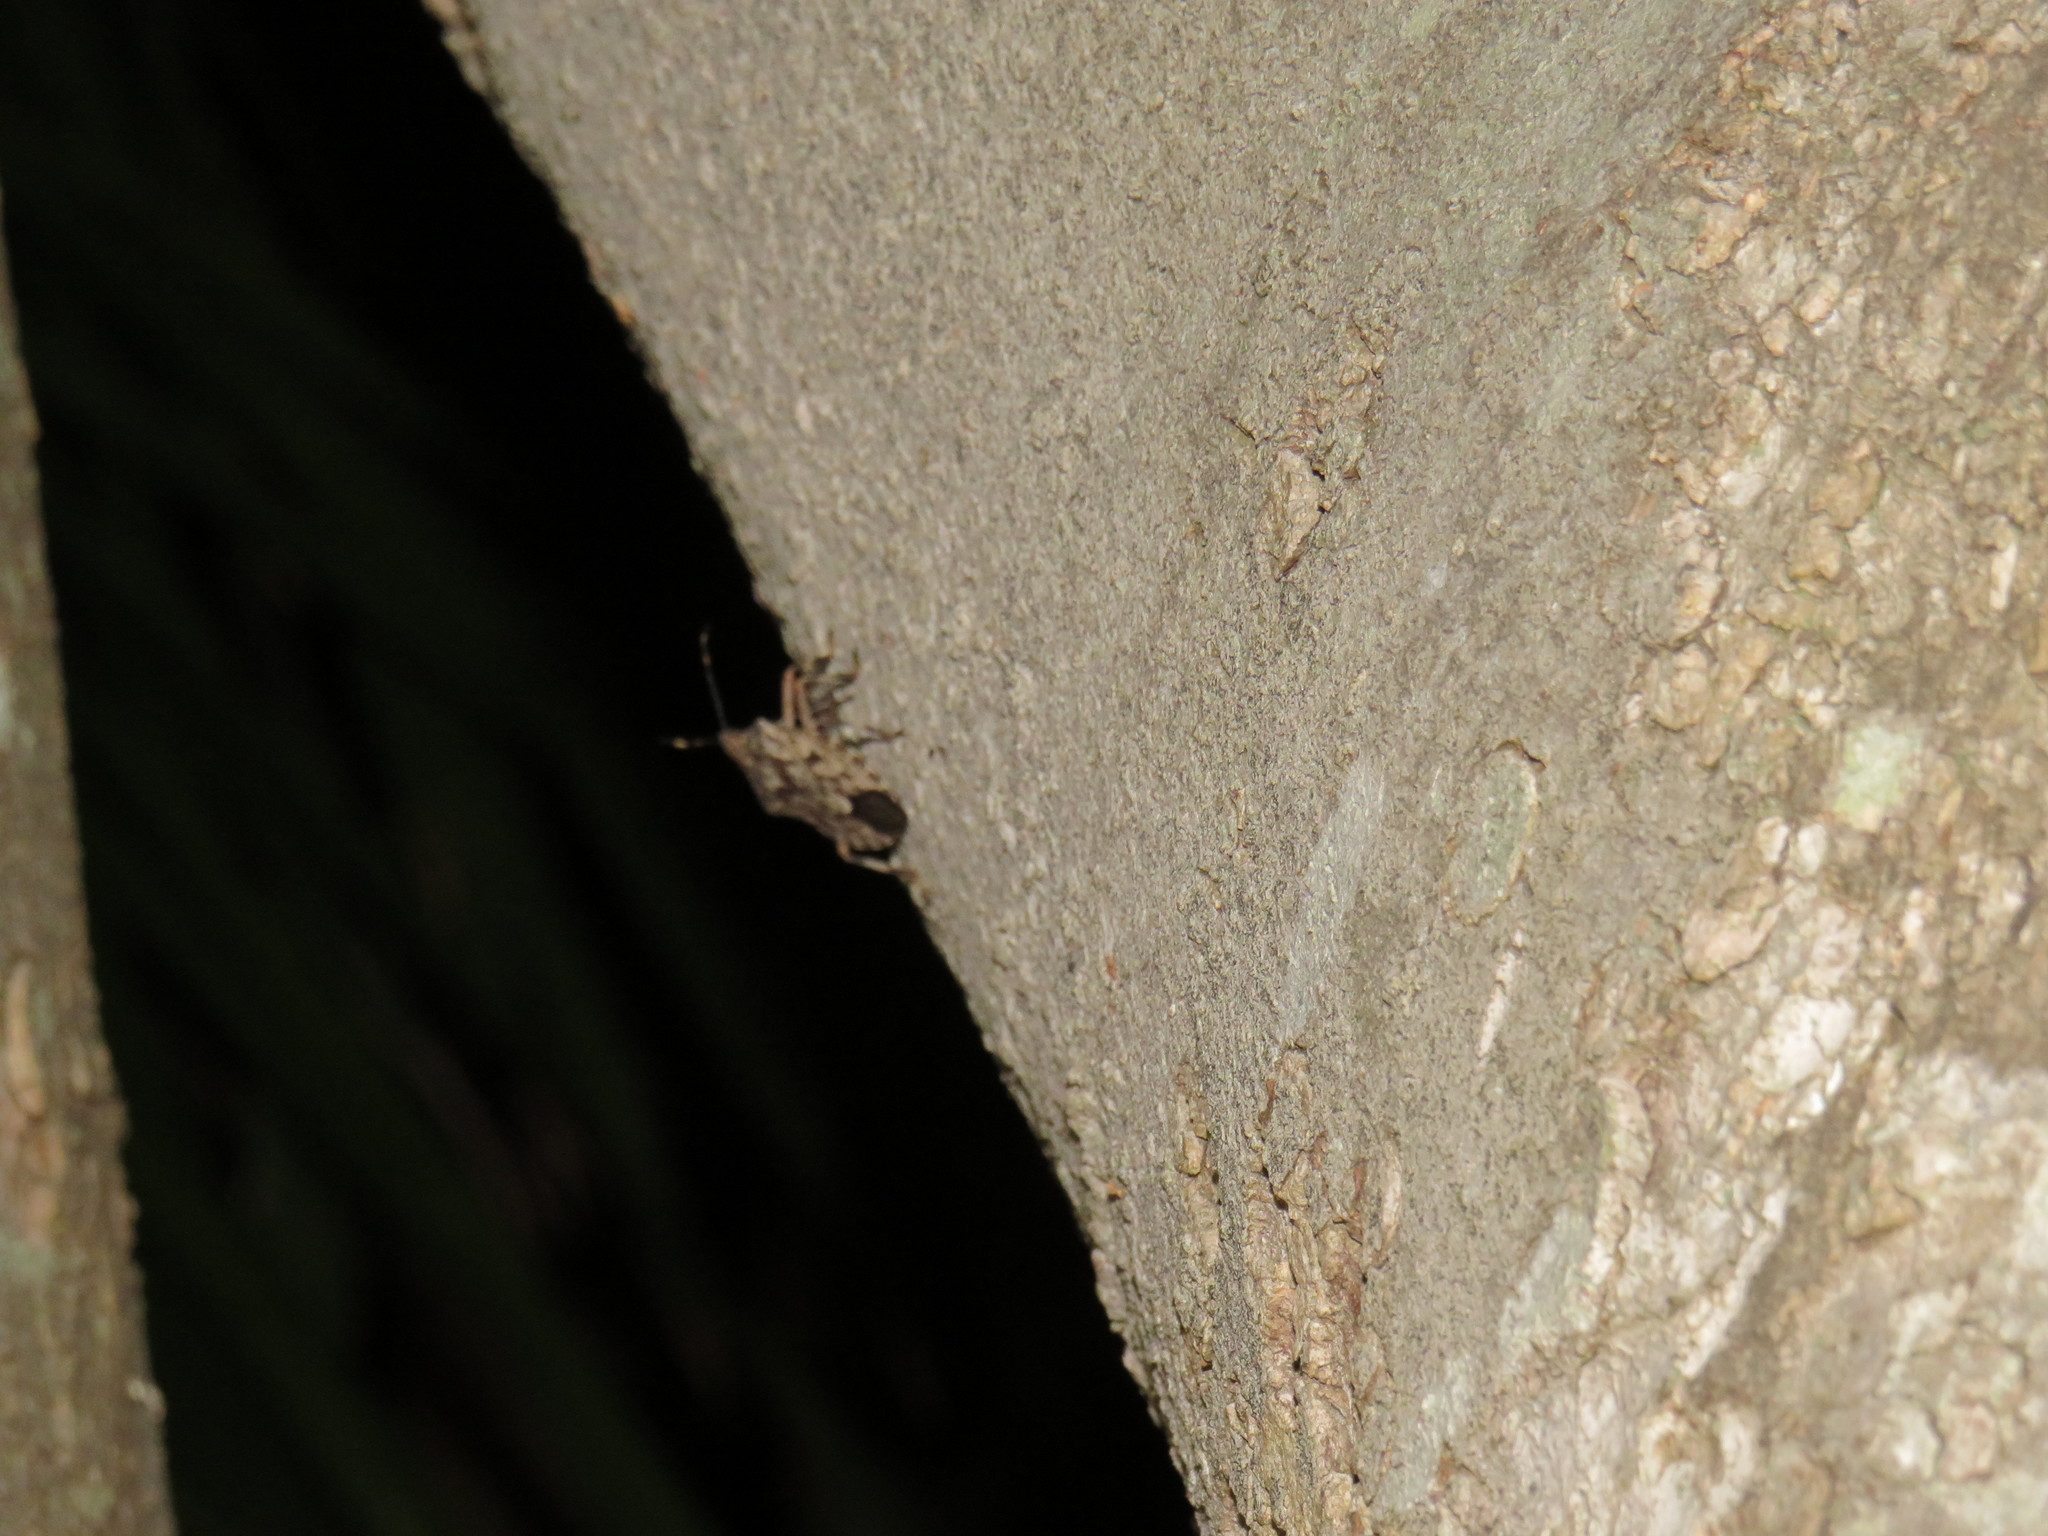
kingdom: Animalia
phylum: Arthropoda
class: Insecta
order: Hemiptera
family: Pentatomidae
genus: Coenomorpha
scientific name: Coenomorpha nervosa
